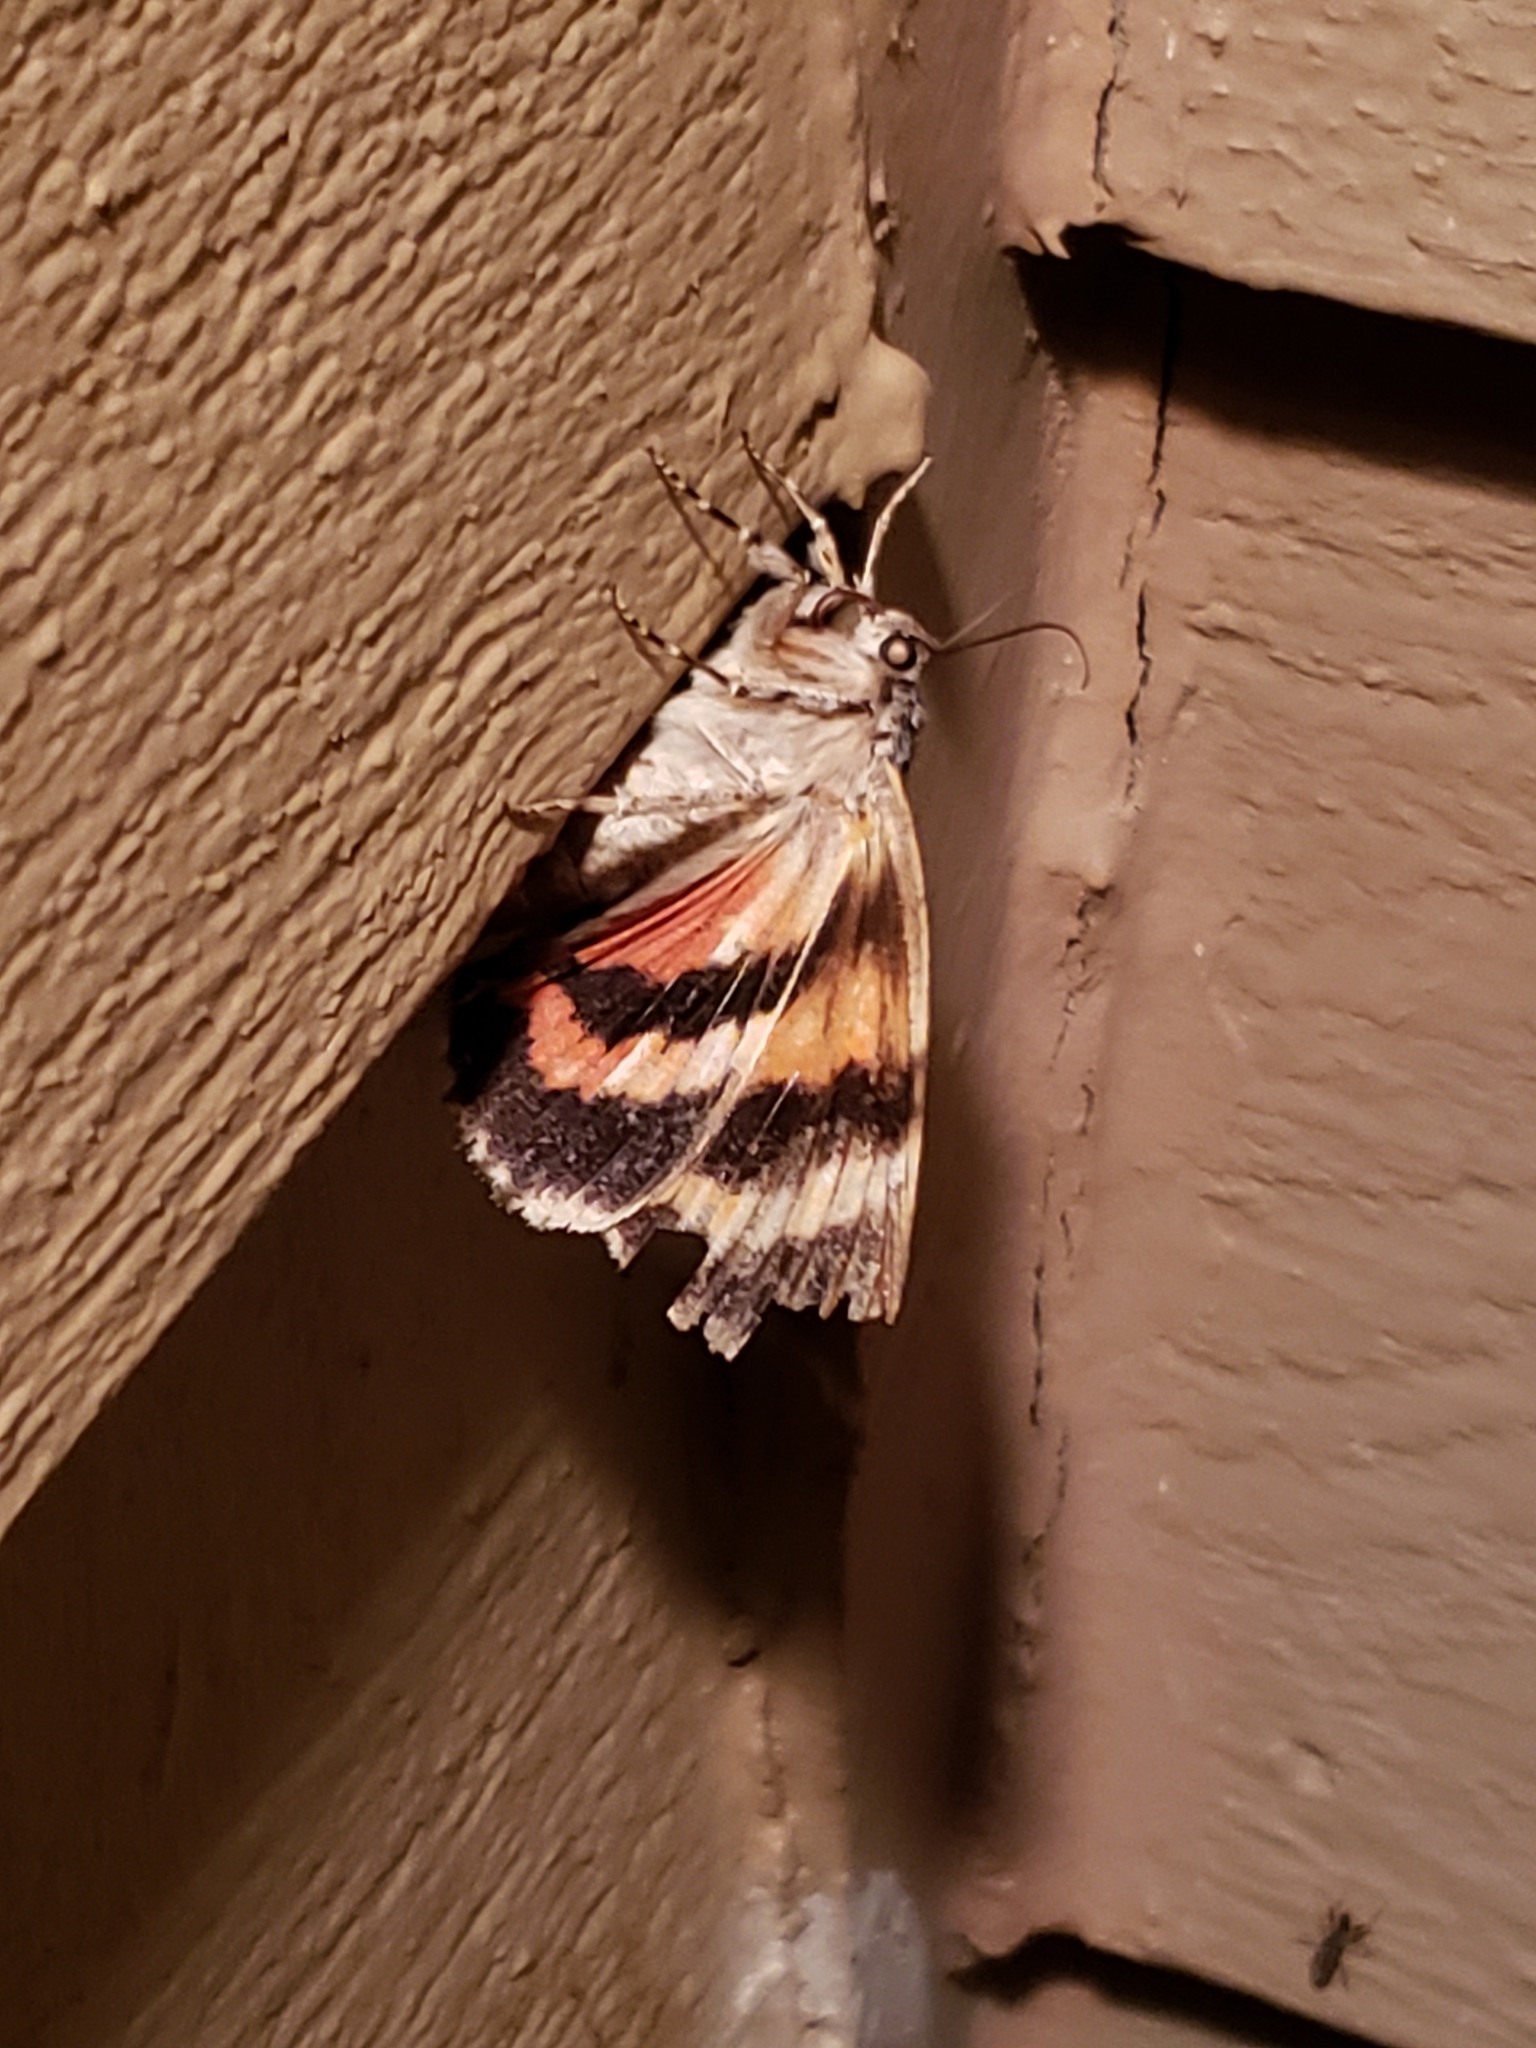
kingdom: Animalia
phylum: Arthropoda
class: Insecta
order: Lepidoptera
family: Erebidae
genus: Catocala
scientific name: Catocala ilia
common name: Ilia underwing
